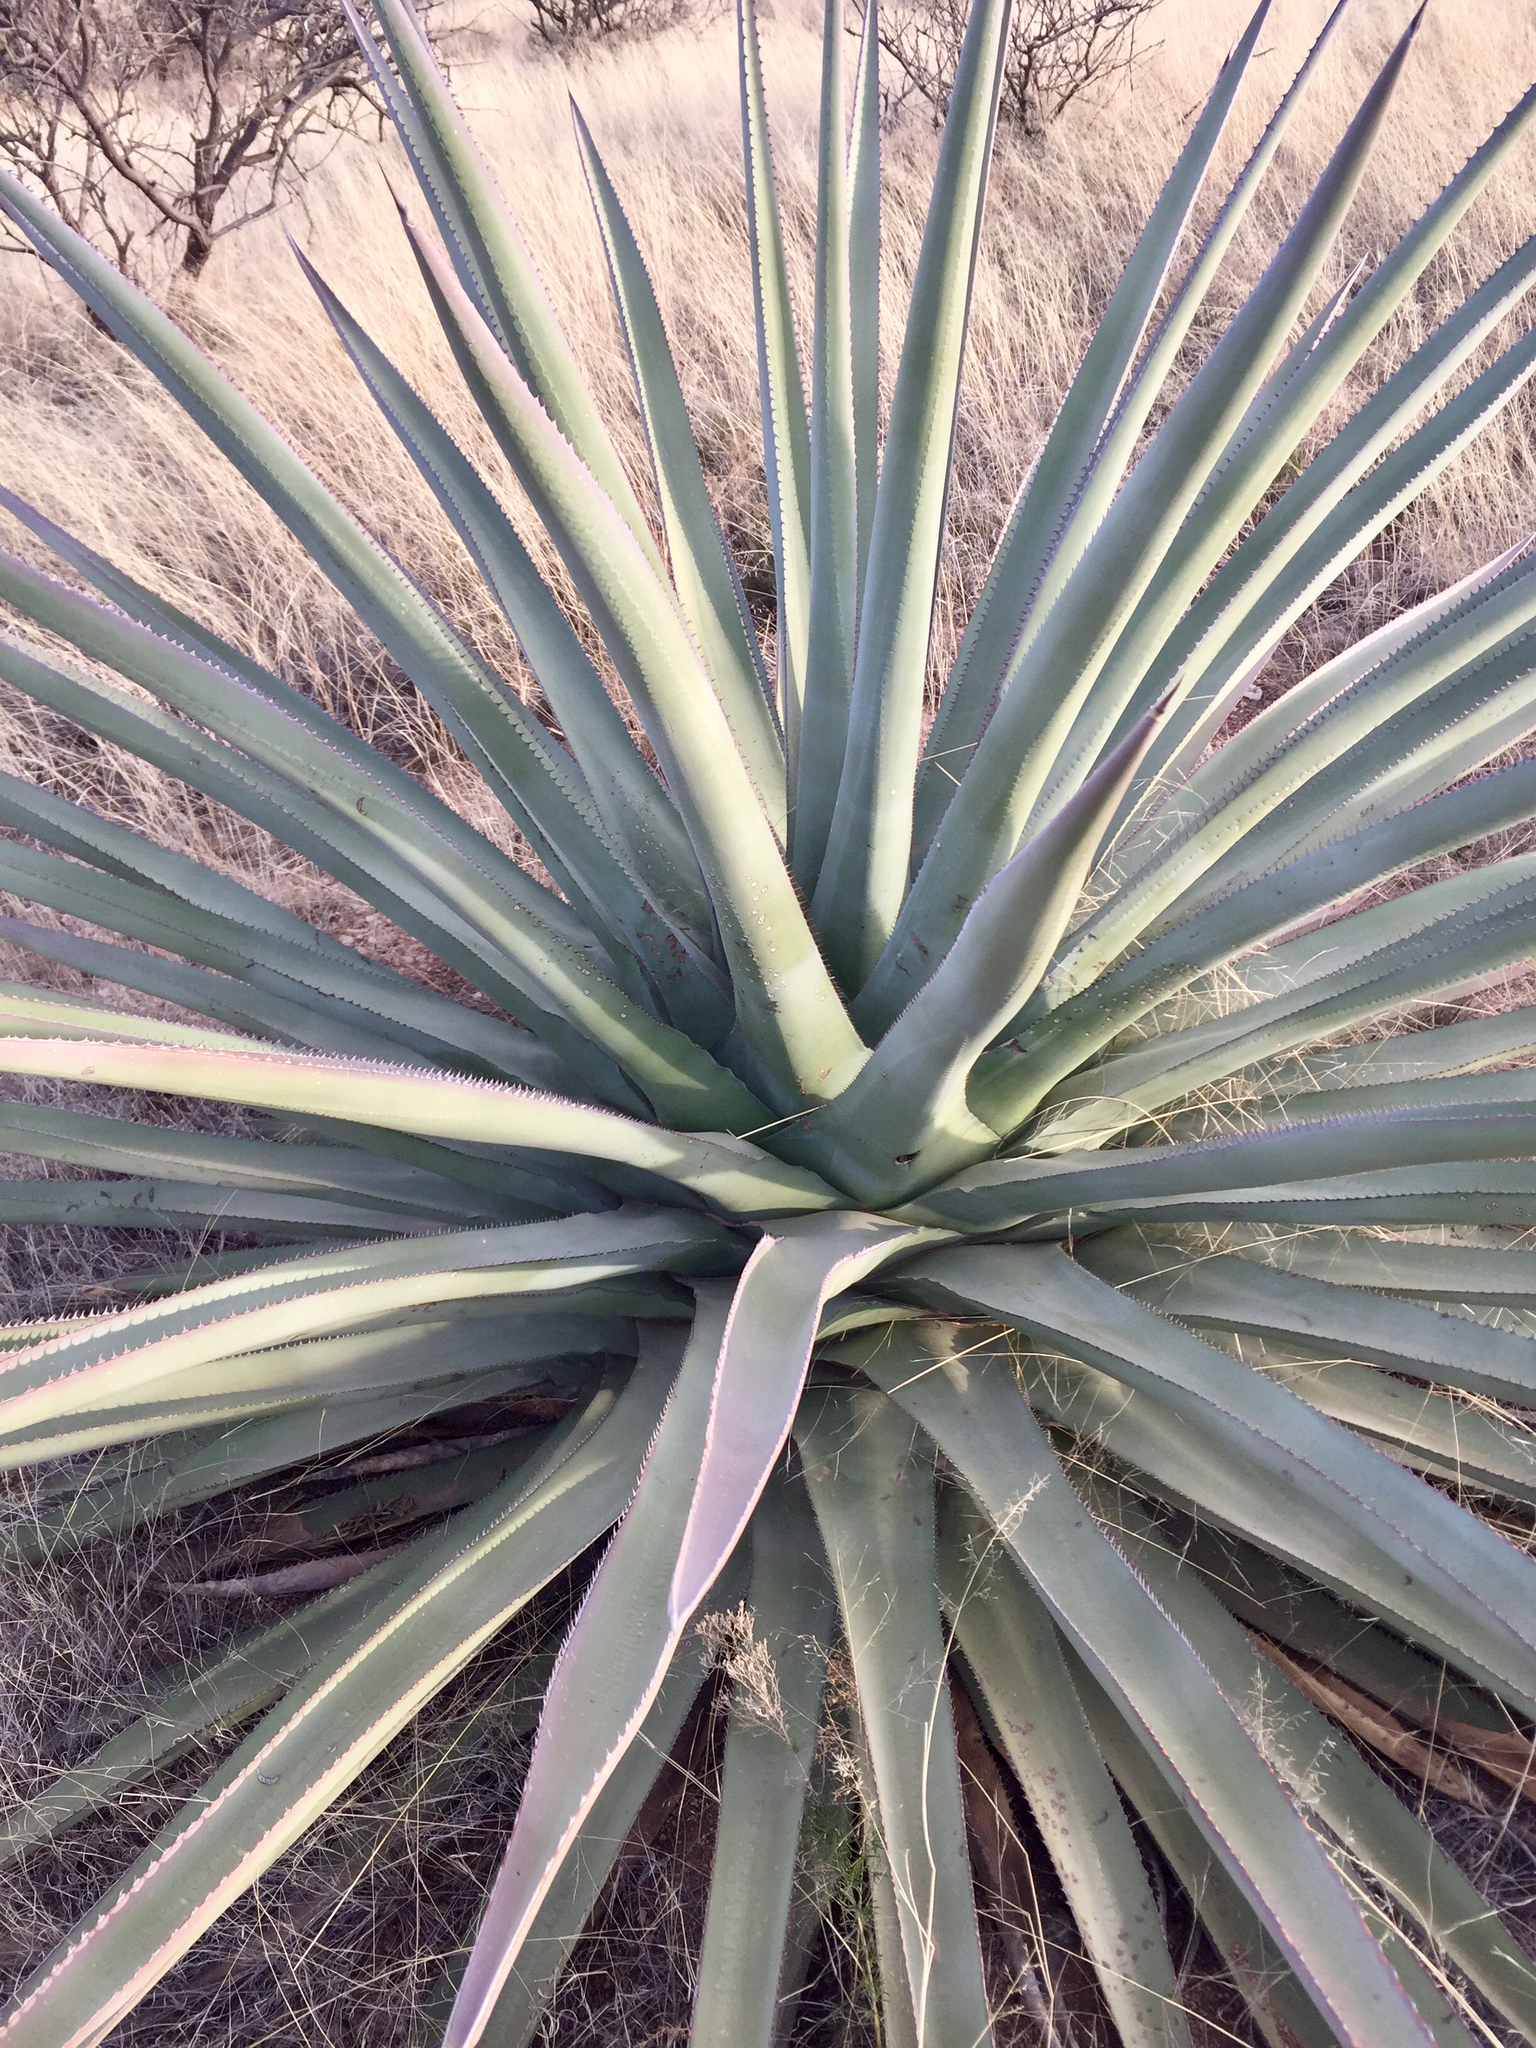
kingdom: Plantae
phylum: Tracheophyta
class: Liliopsida
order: Asparagales
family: Asparagaceae
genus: Agave
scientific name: Agave palmeri
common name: Palmer agave
